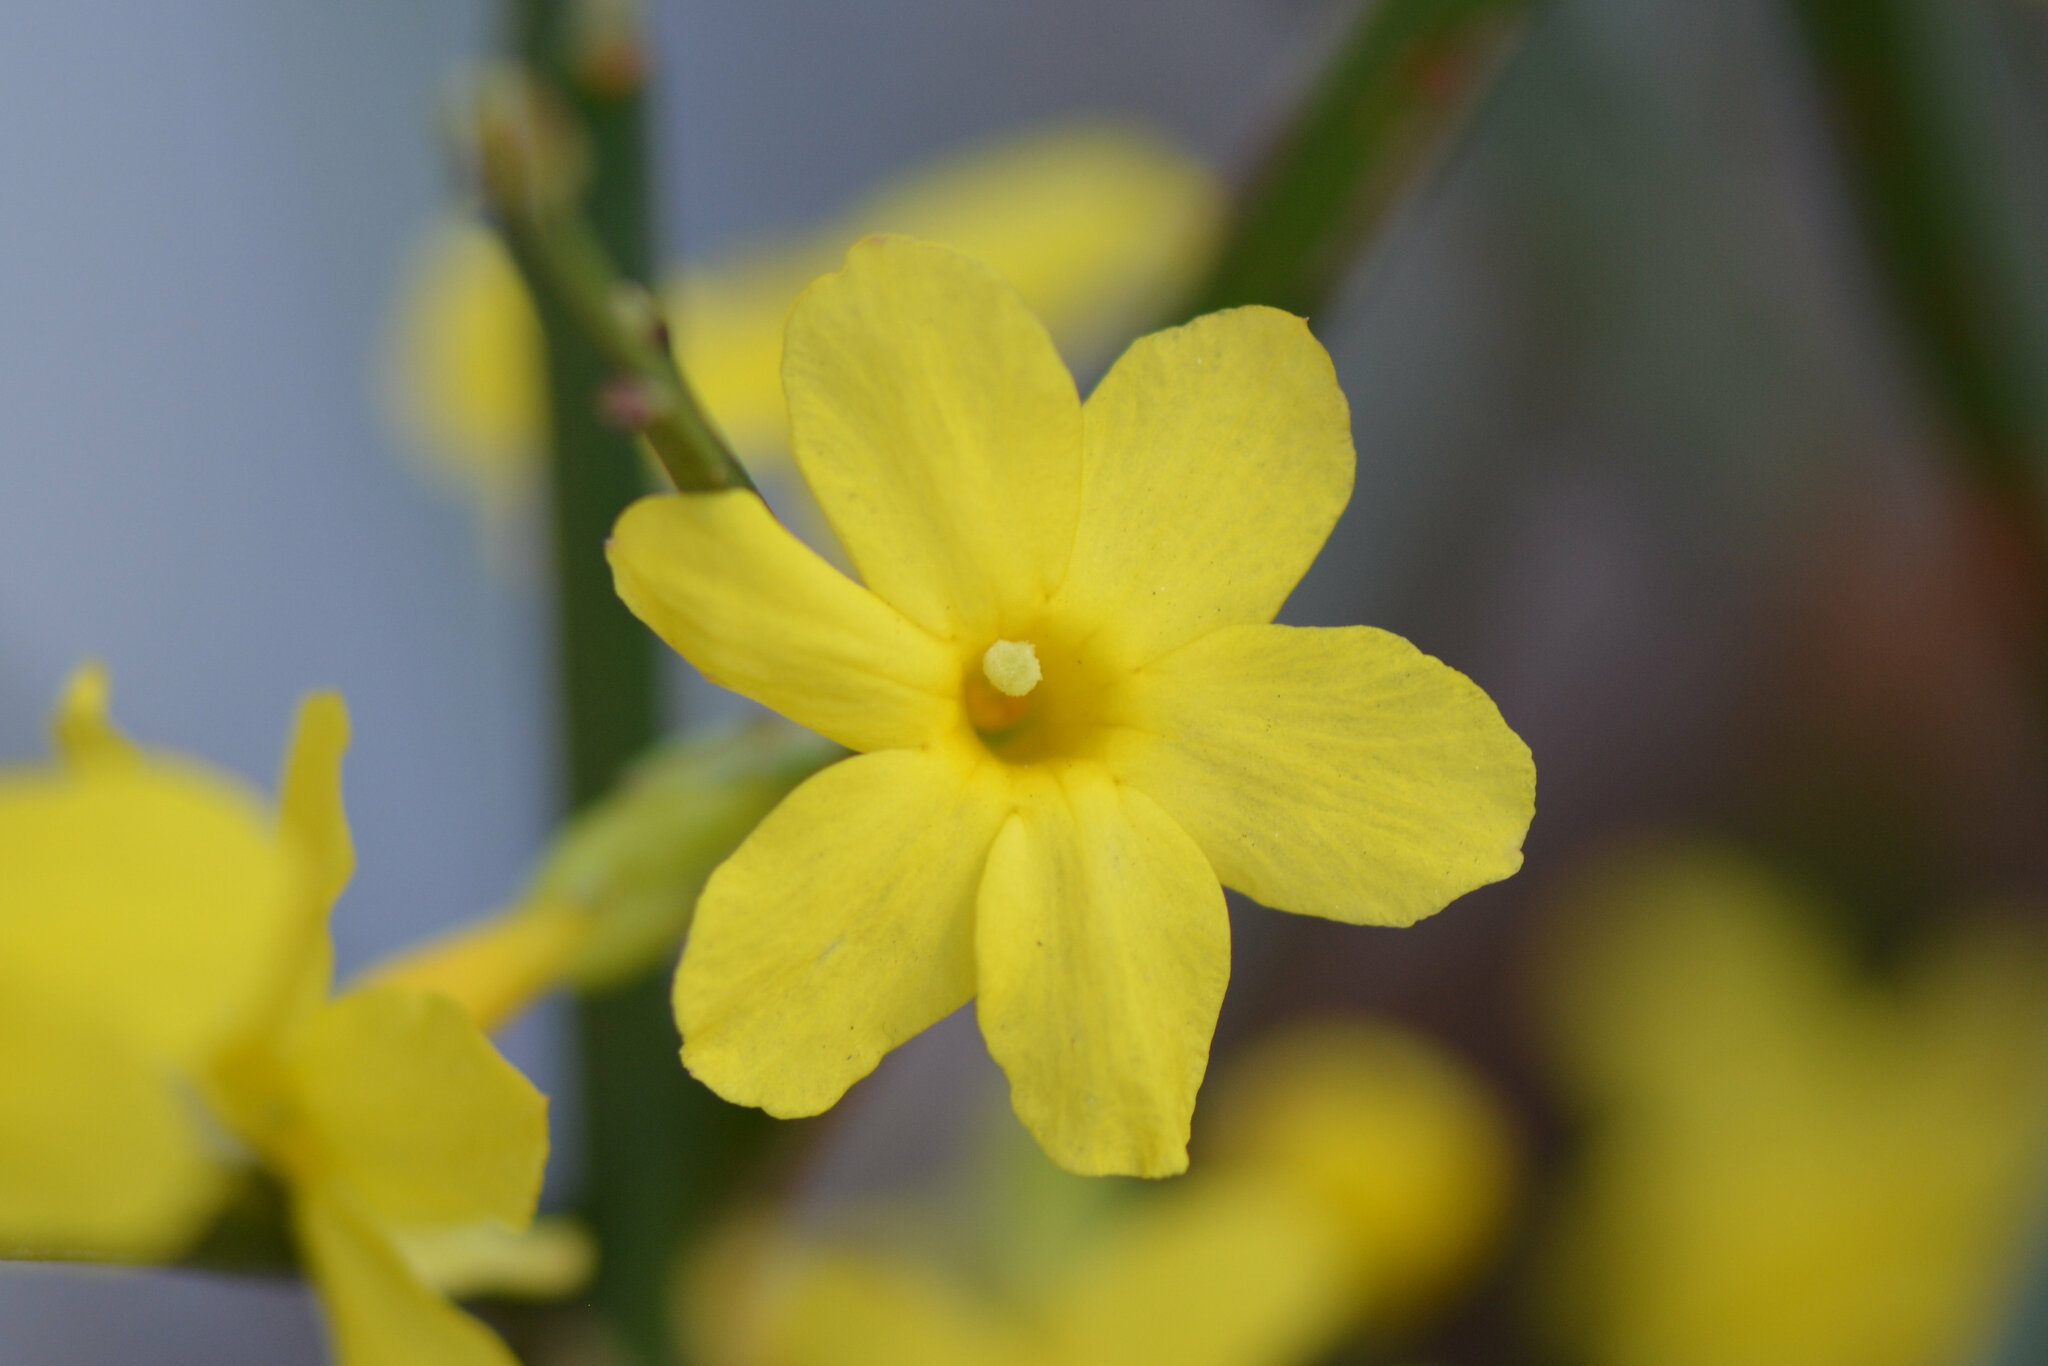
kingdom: Plantae
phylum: Tracheophyta
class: Magnoliopsida
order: Lamiales
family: Oleaceae
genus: Jasminum
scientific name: Jasminum nudiflorum
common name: Winter jasmine
